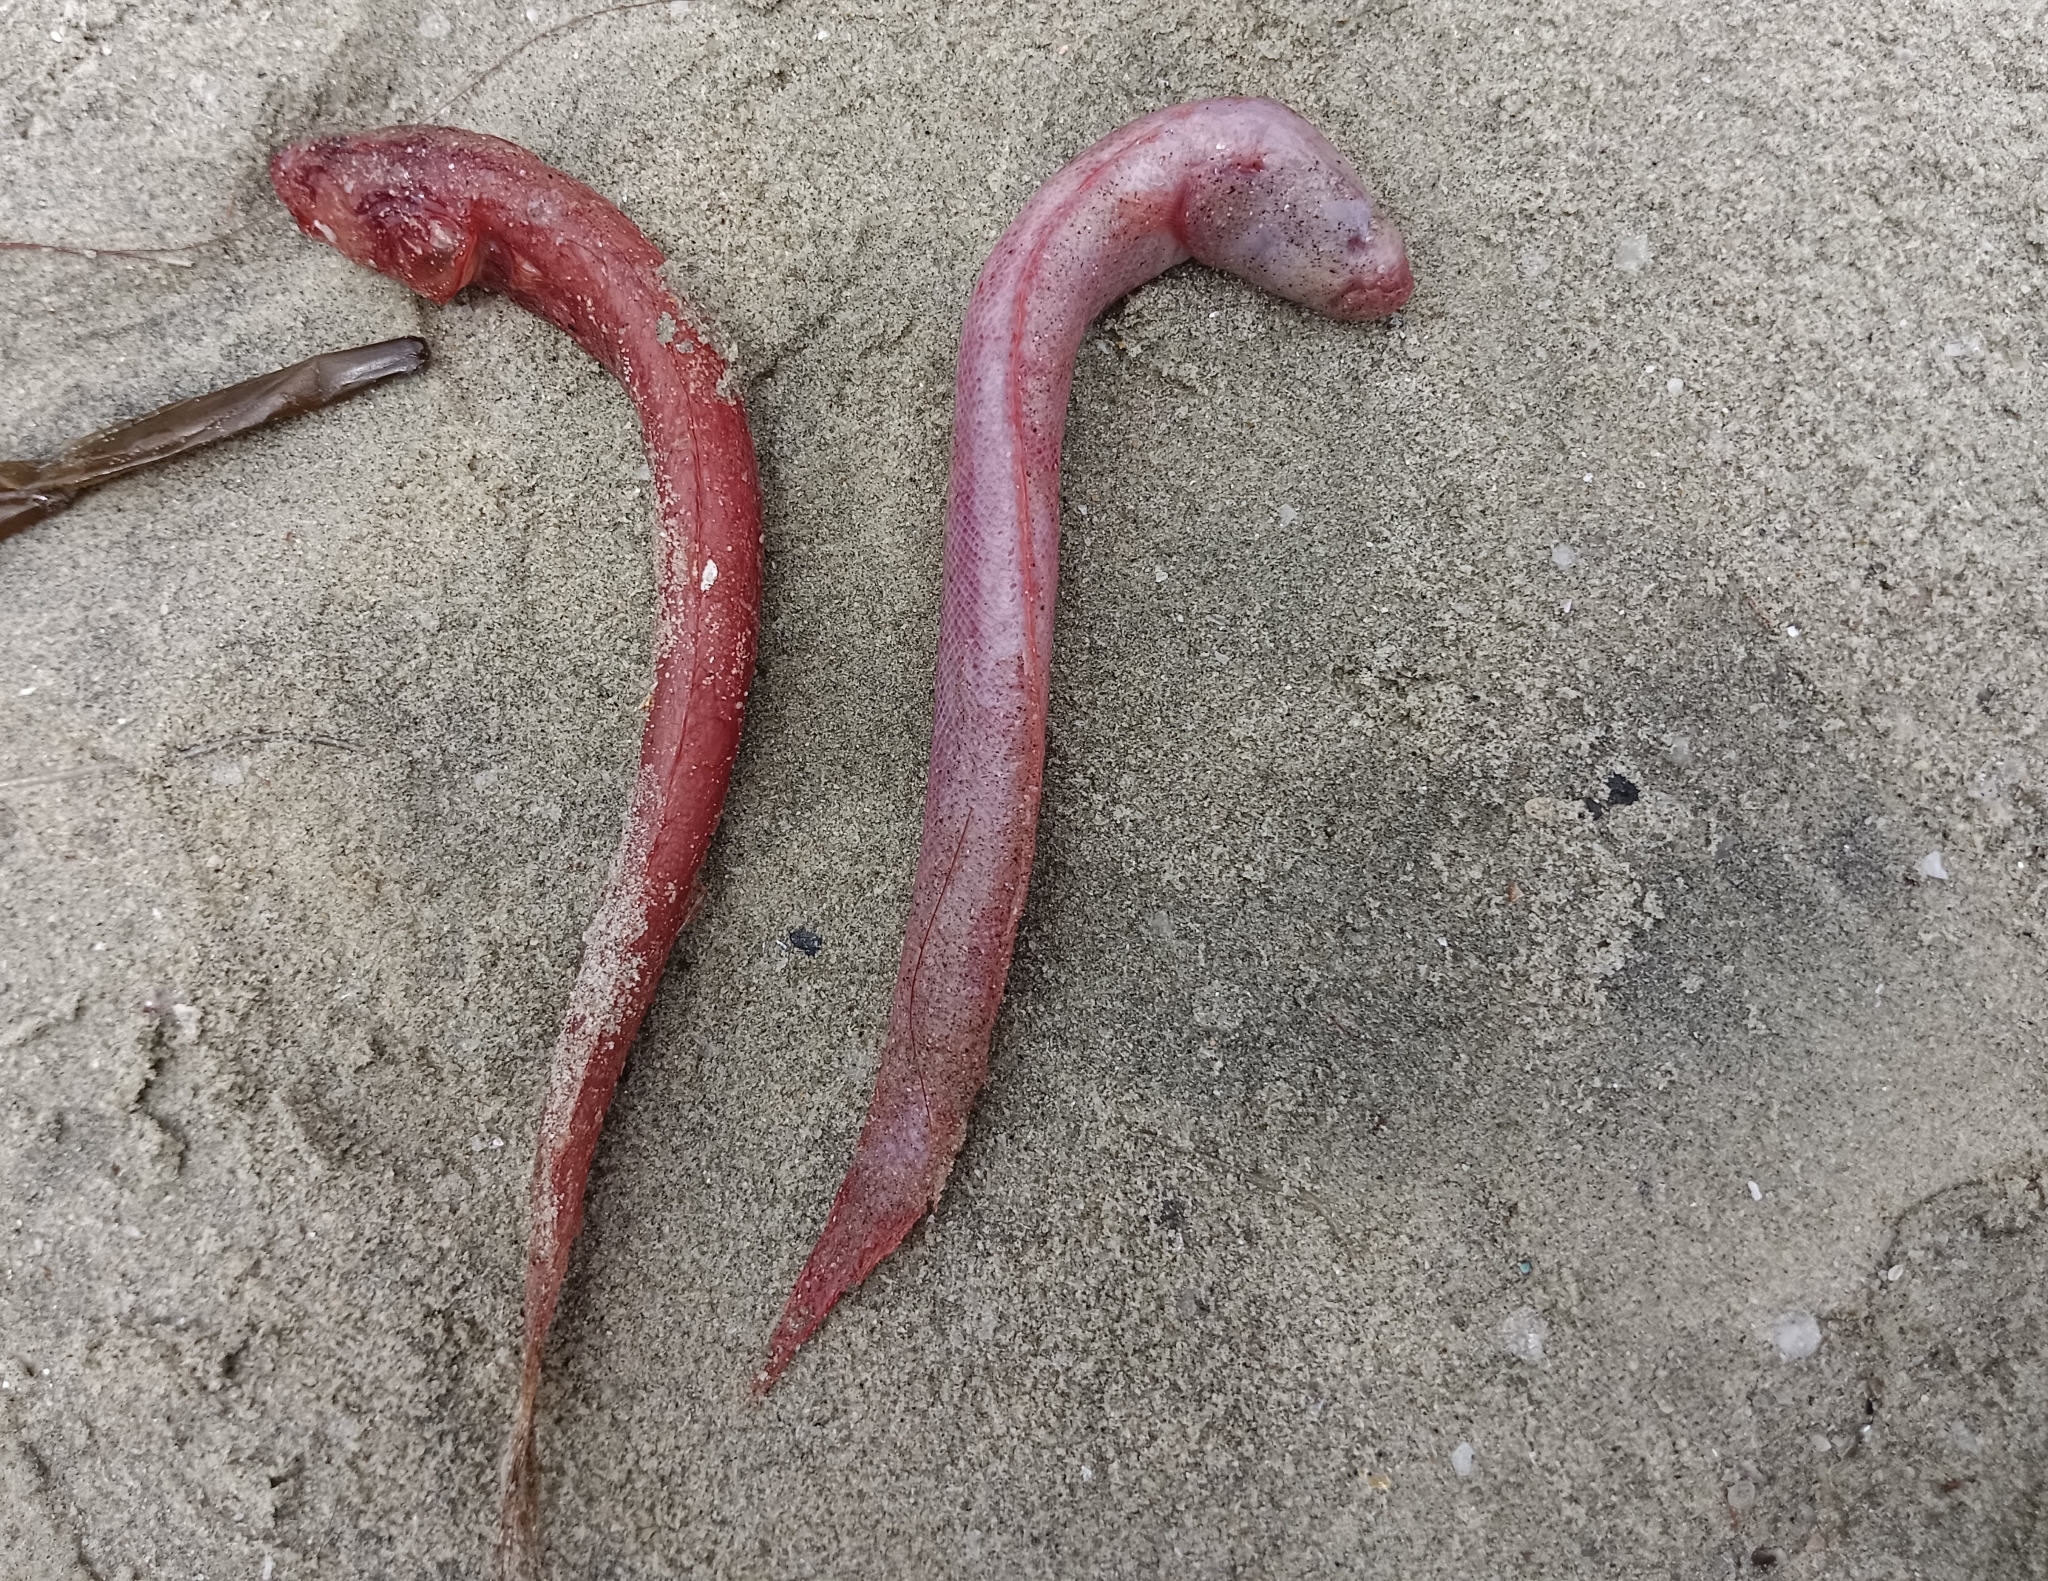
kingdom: Animalia
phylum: Chordata
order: Perciformes
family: Gobiidae
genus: Trypauchen
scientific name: Trypauchen vagina
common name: Burrowing goby
